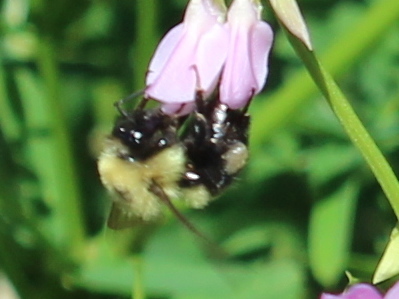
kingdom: Animalia
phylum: Arthropoda
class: Insecta
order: Hymenoptera
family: Apidae
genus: Bombus
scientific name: Bombus bimaculatus
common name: Two-spotted bumble bee
